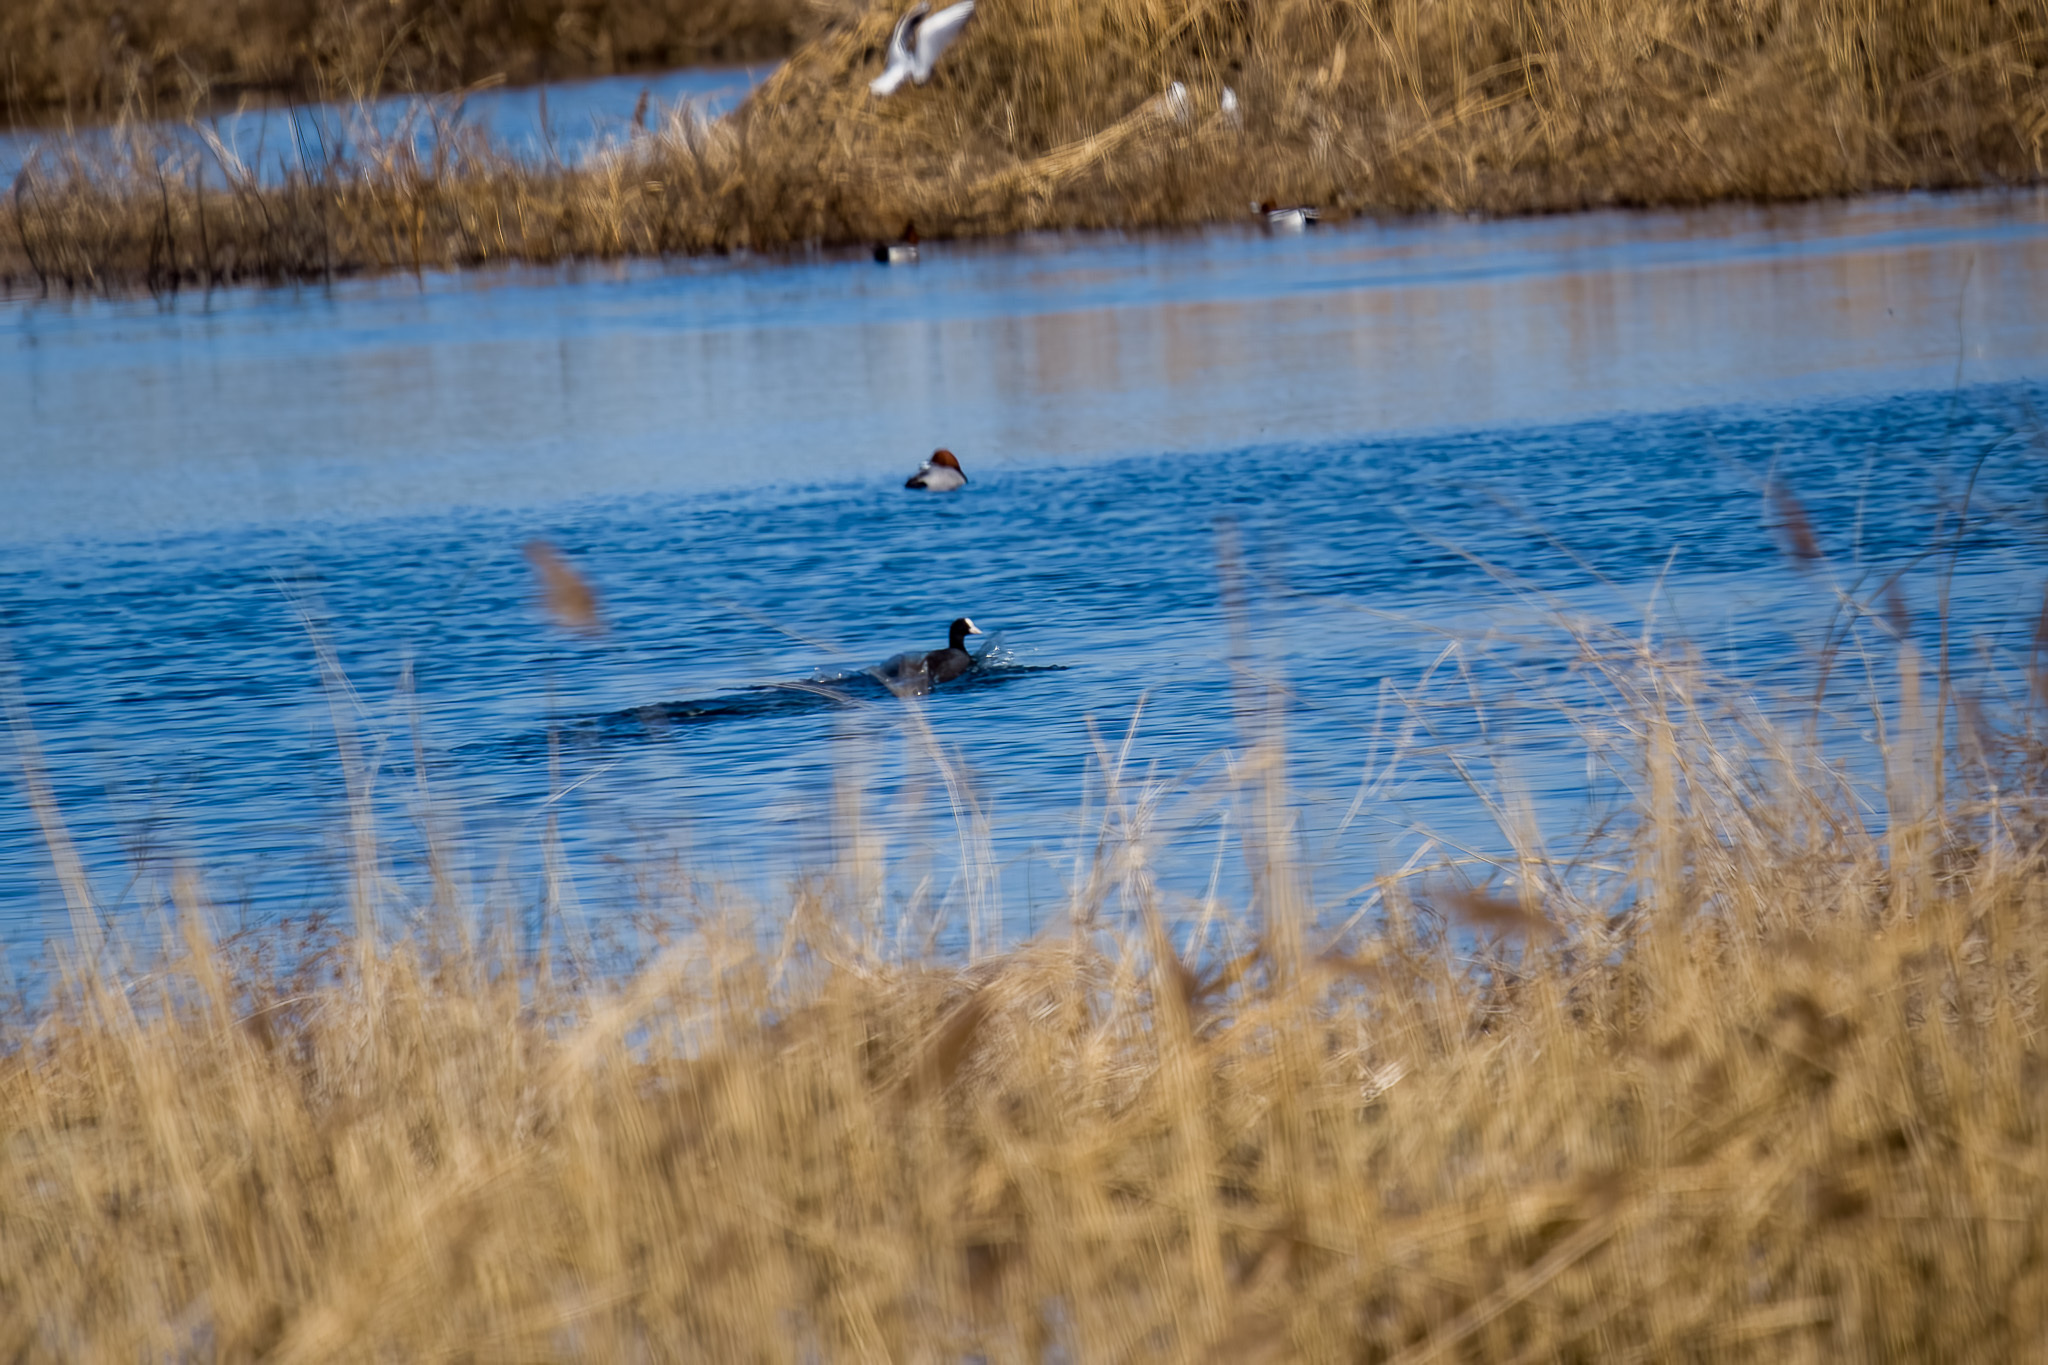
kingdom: Animalia
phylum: Chordata
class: Aves
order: Gruiformes
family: Rallidae
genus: Fulica
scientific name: Fulica atra
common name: Eurasian coot
